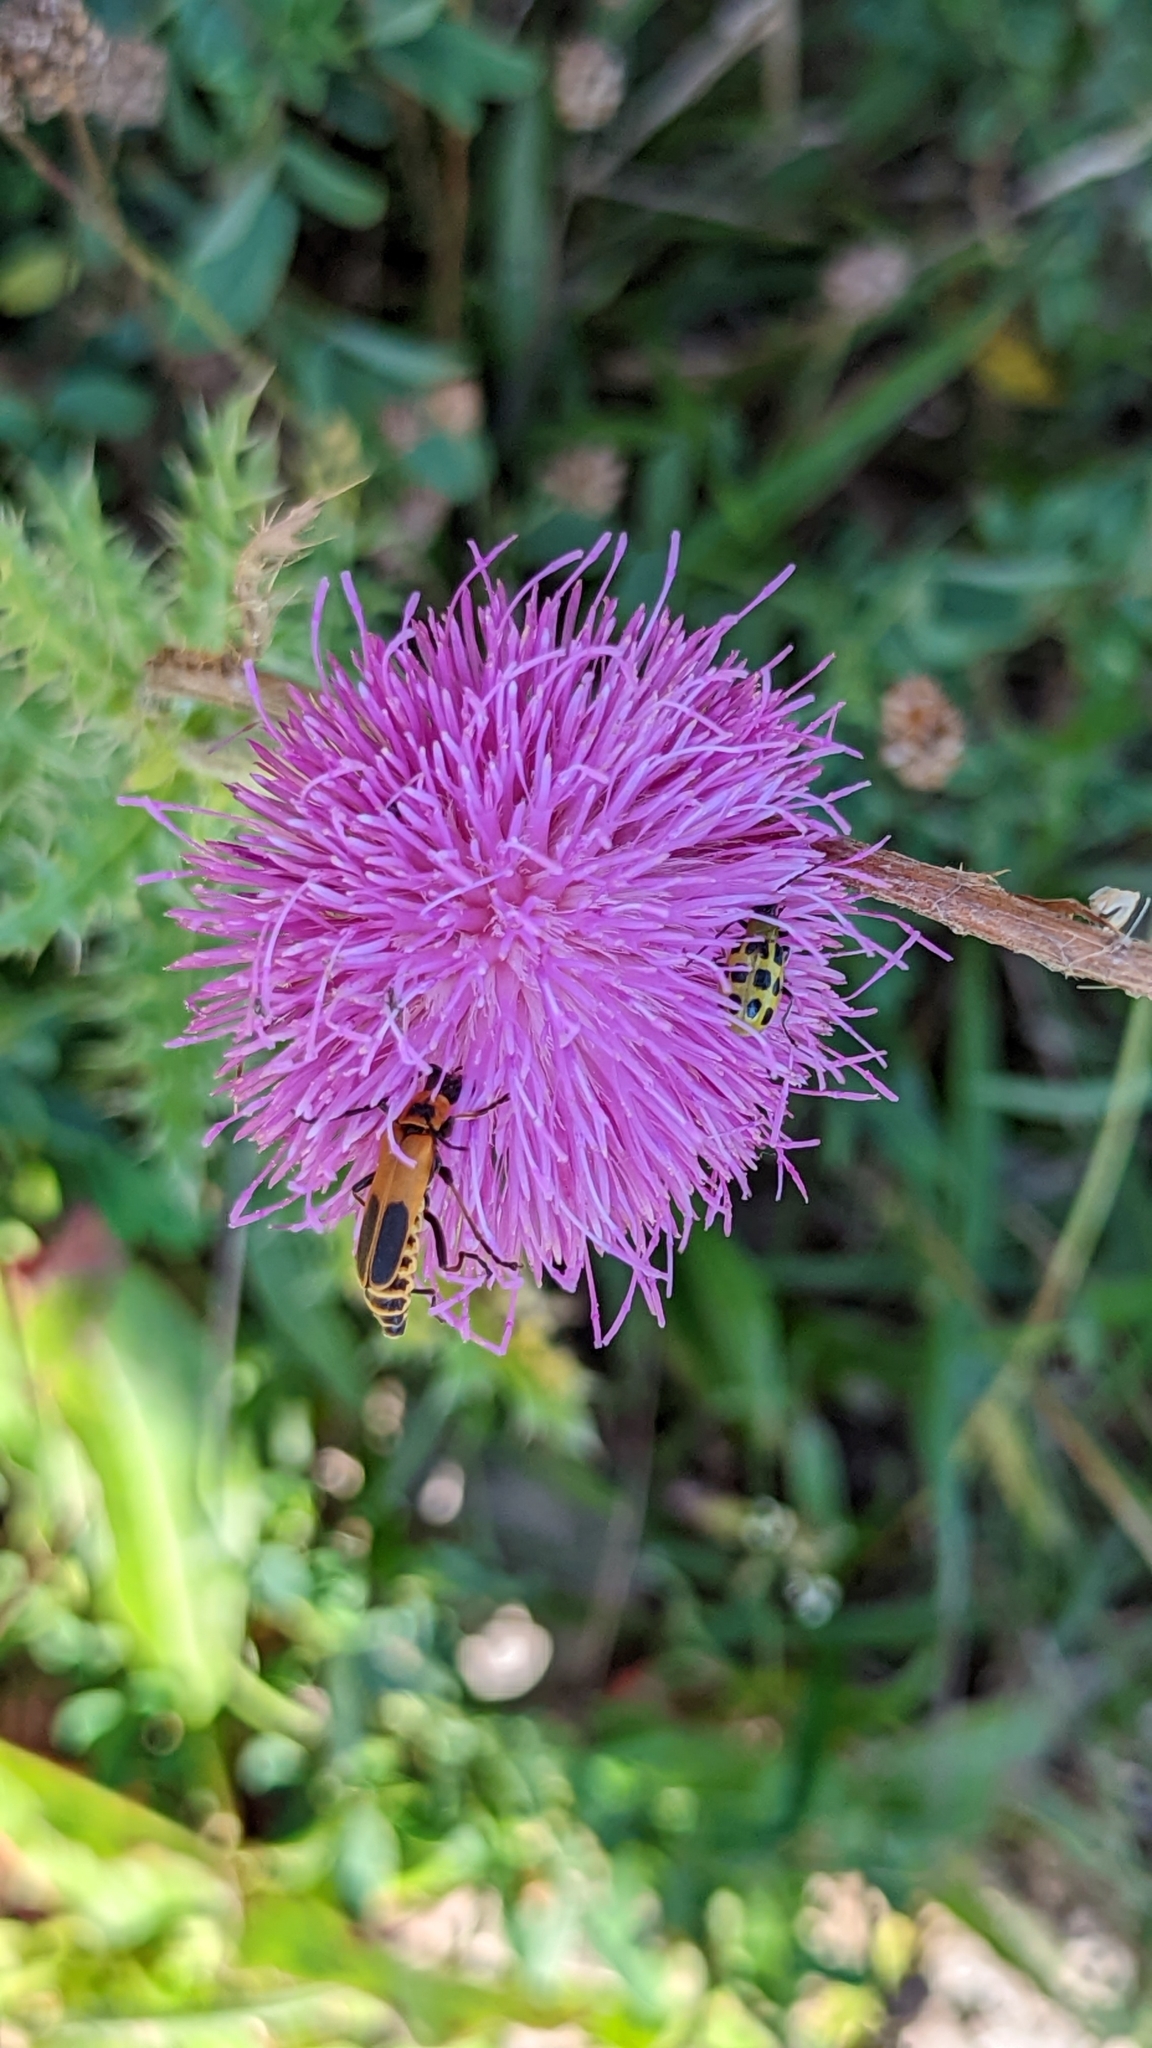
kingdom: Animalia
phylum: Arthropoda
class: Insecta
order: Coleoptera
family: Cantharidae
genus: Chauliognathus
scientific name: Chauliognathus pensylvanicus
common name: Goldenrod soldier beetle
